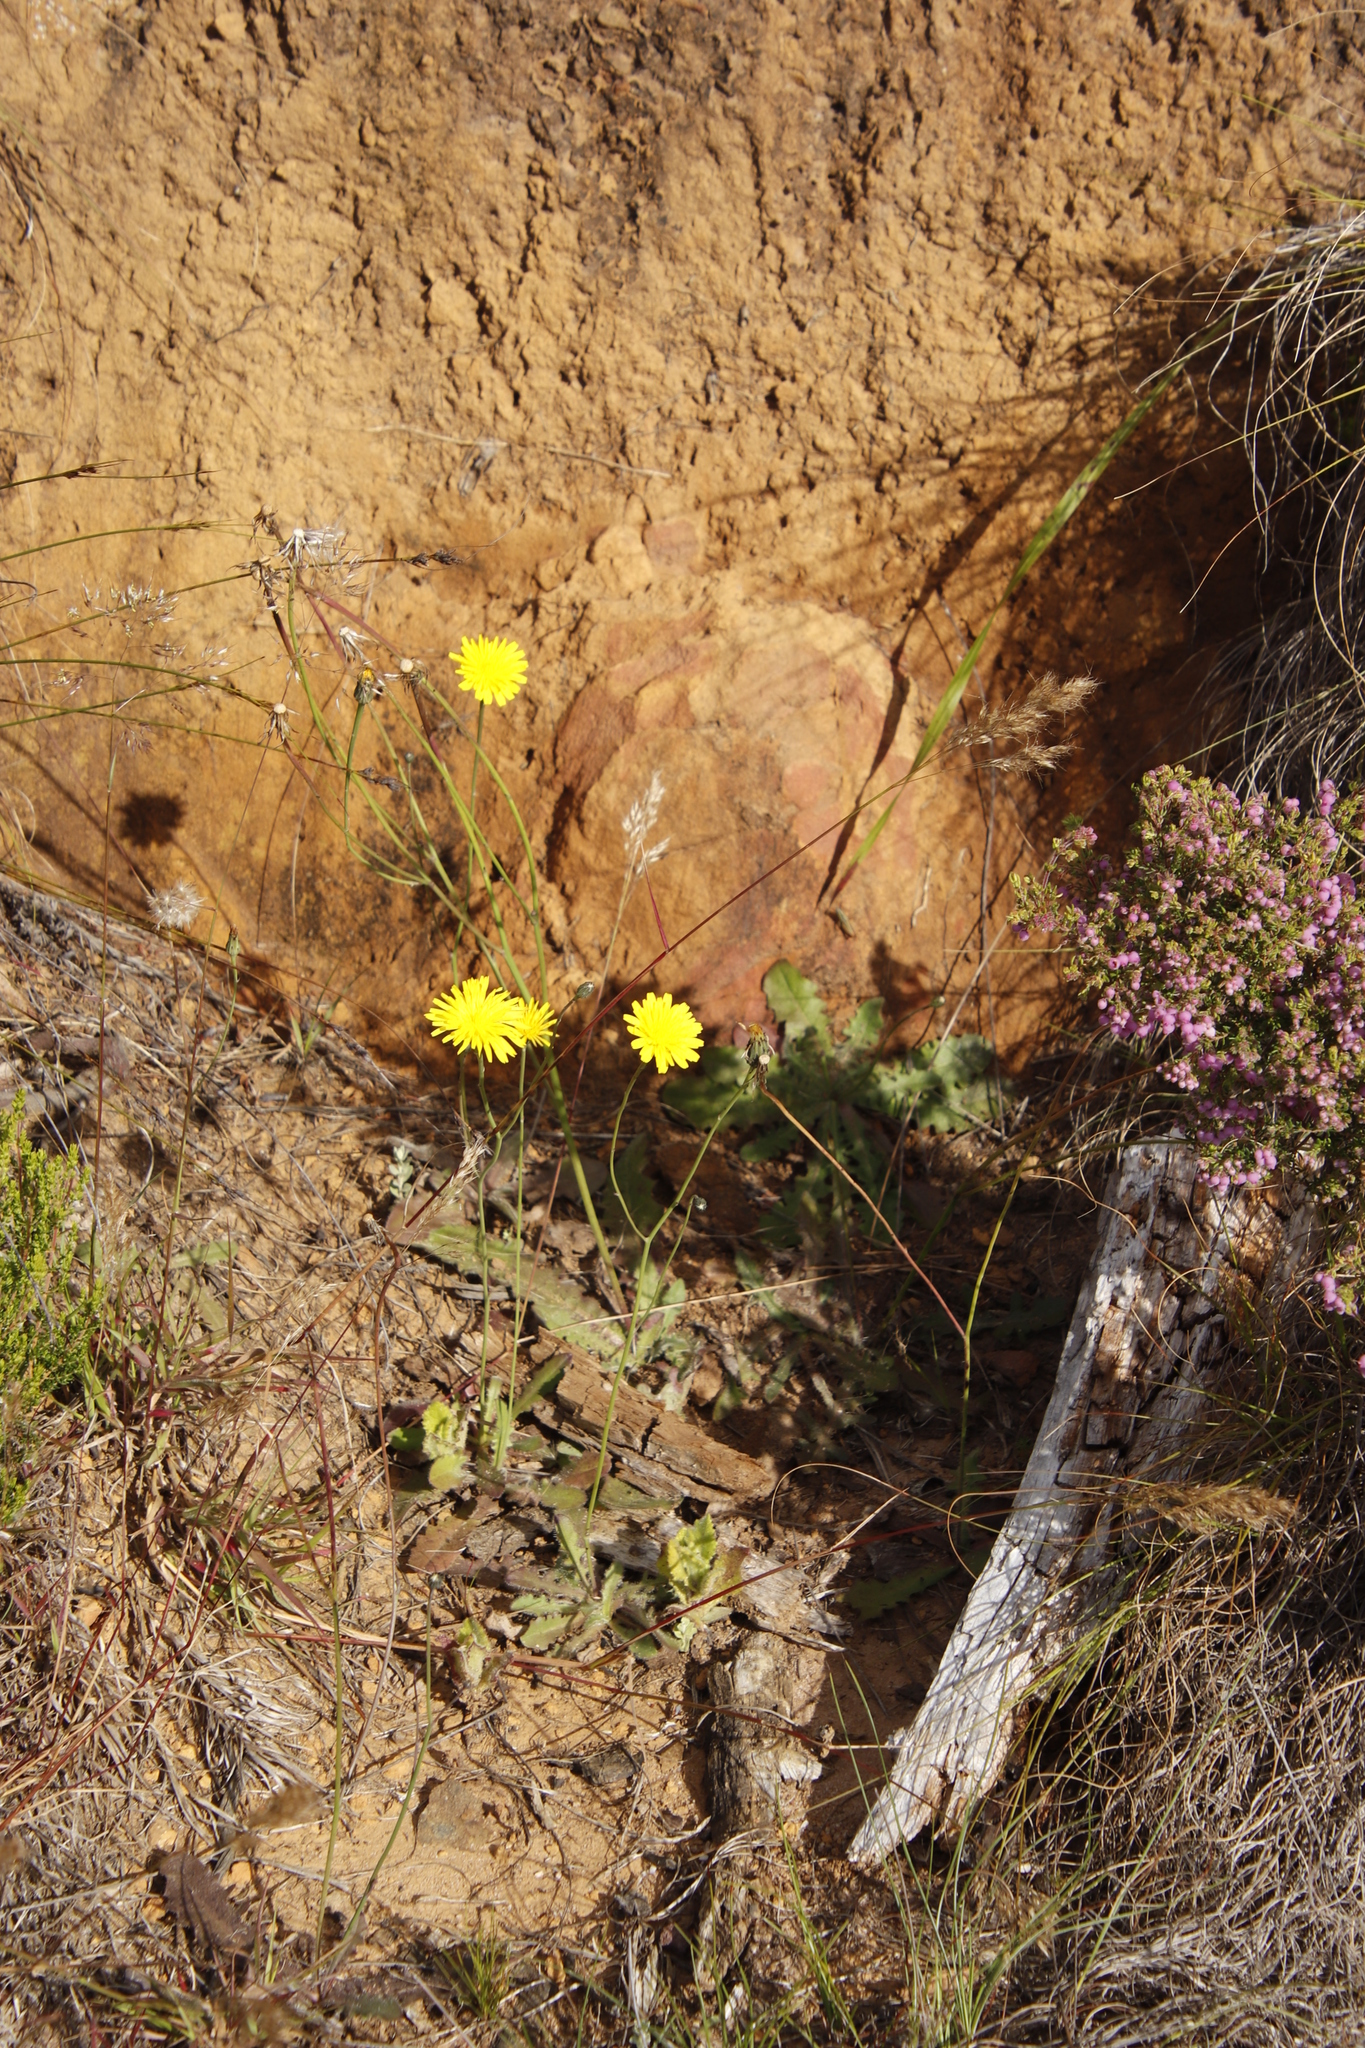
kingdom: Plantae
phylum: Tracheophyta
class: Magnoliopsida
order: Asterales
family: Asteraceae
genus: Hypochaeris
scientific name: Hypochaeris radicata
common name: Flatweed
